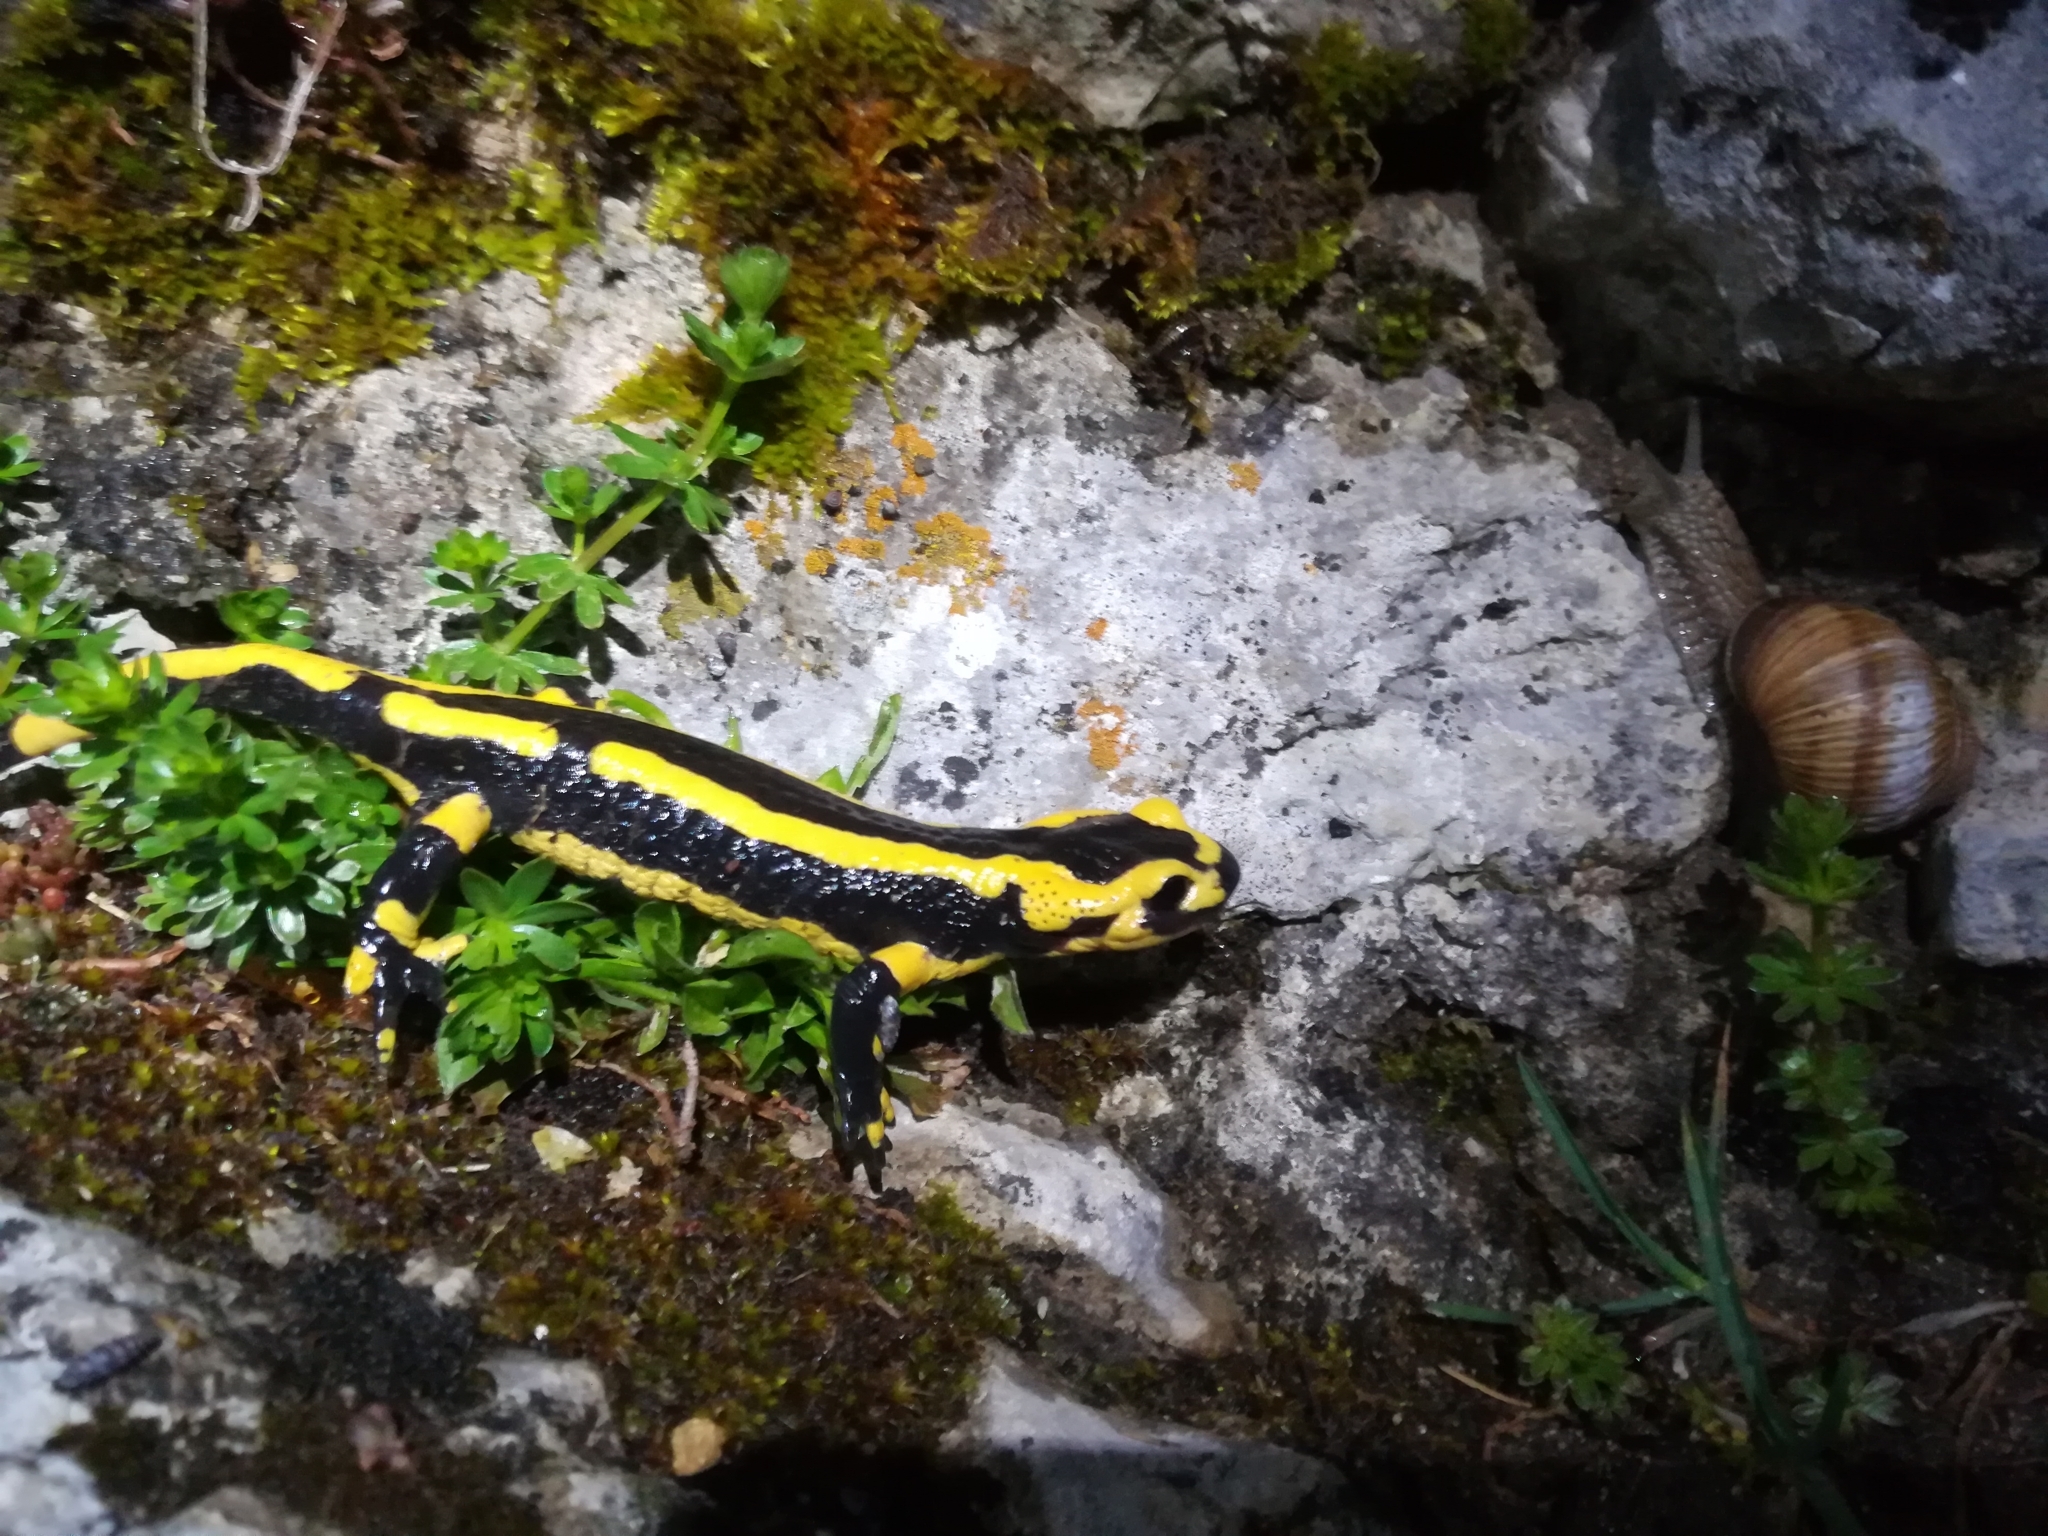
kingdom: Animalia
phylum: Chordata
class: Amphibia
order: Caudata
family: Salamandridae
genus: Salamandra
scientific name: Salamandra salamandra
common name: Fire salamander
